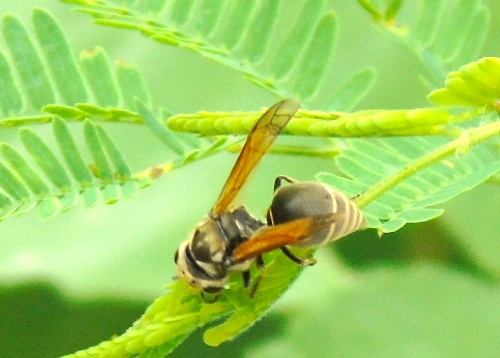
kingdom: Animalia
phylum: Arthropoda
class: Insecta
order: Hymenoptera
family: Vespidae
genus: Brachygastra
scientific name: Brachygastra mellifica
